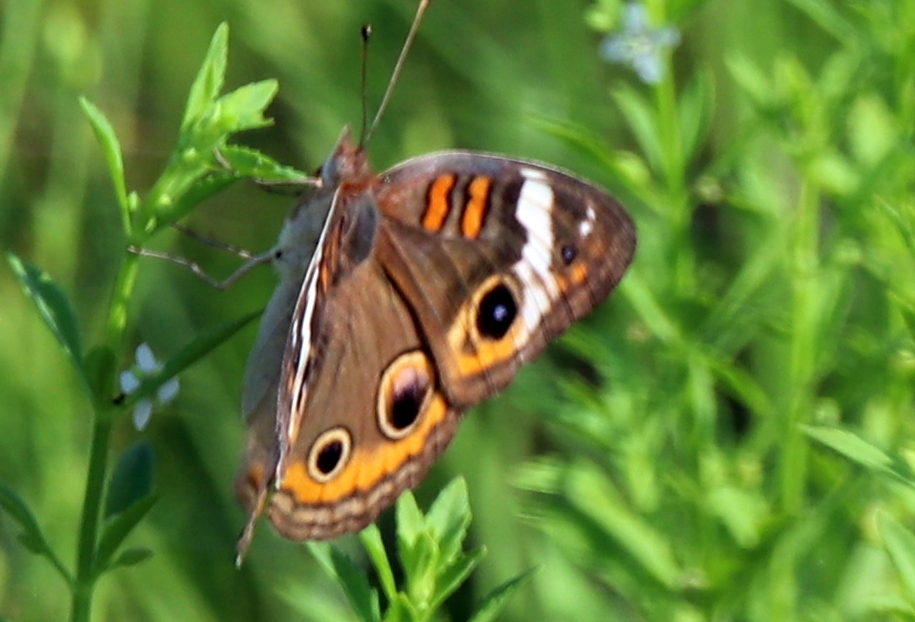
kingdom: Animalia
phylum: Arthropoda
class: Insecta
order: Lepidoptera
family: Nymphalidae
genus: Junonia
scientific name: Junonia coenia
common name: Common buckeye
